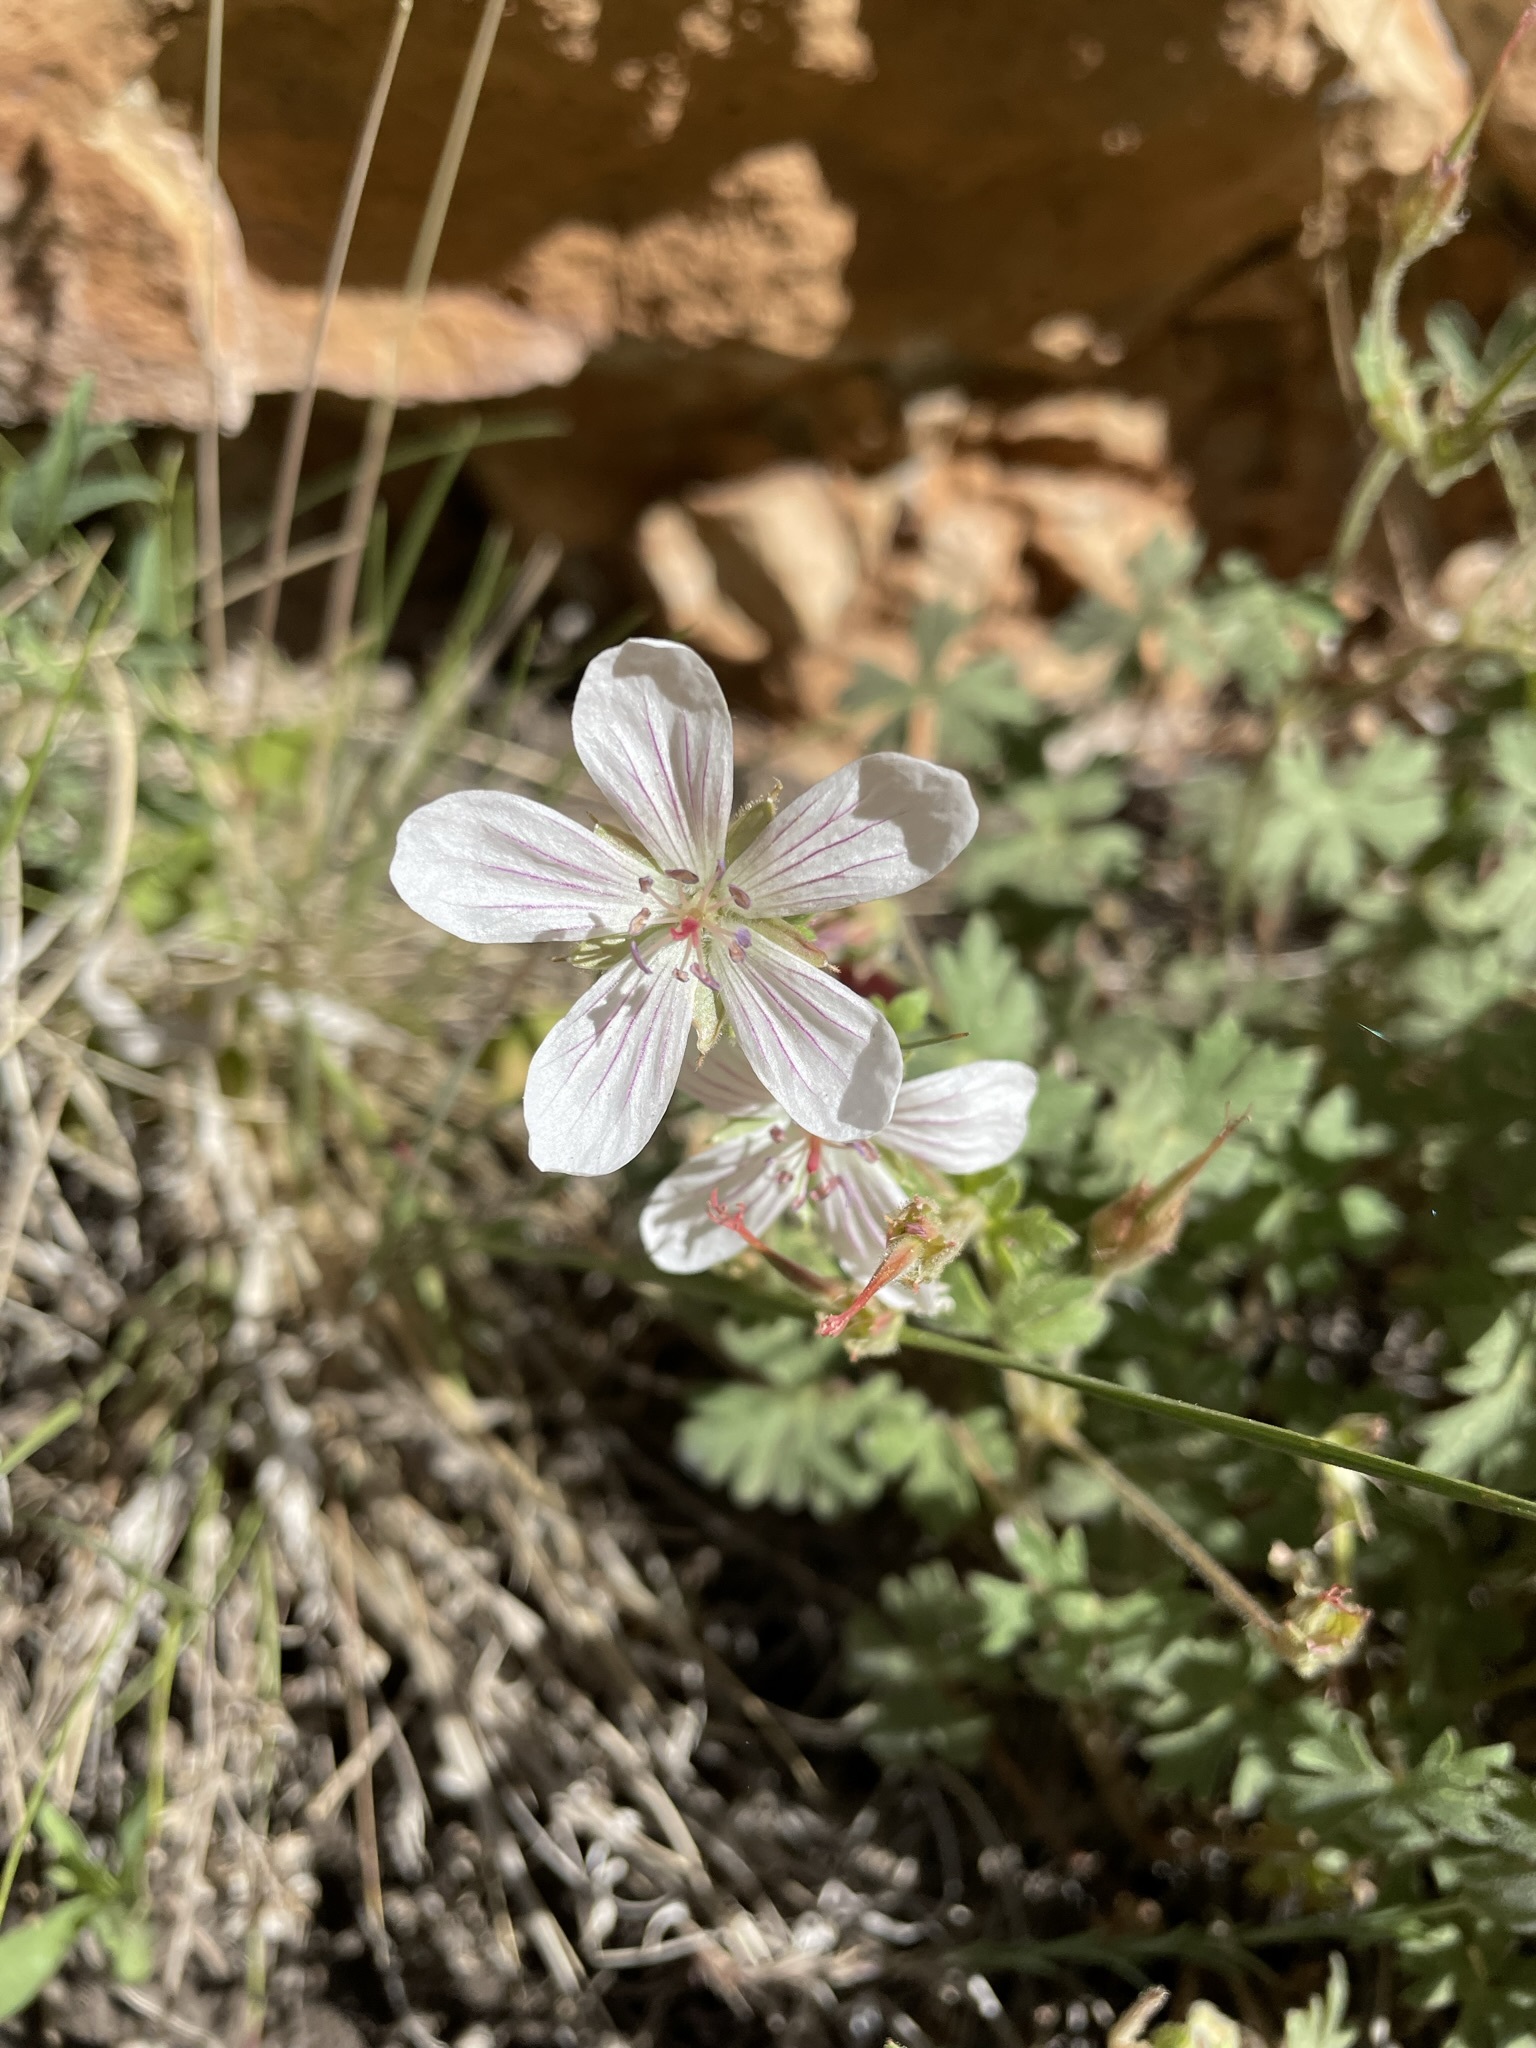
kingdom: Plantae
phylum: Tracheophyta
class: Magnoliopsida
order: Geraniales
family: Geraniaceae
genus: Geranium
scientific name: Geranium richardsonii
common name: Richardson's crane's-bill
